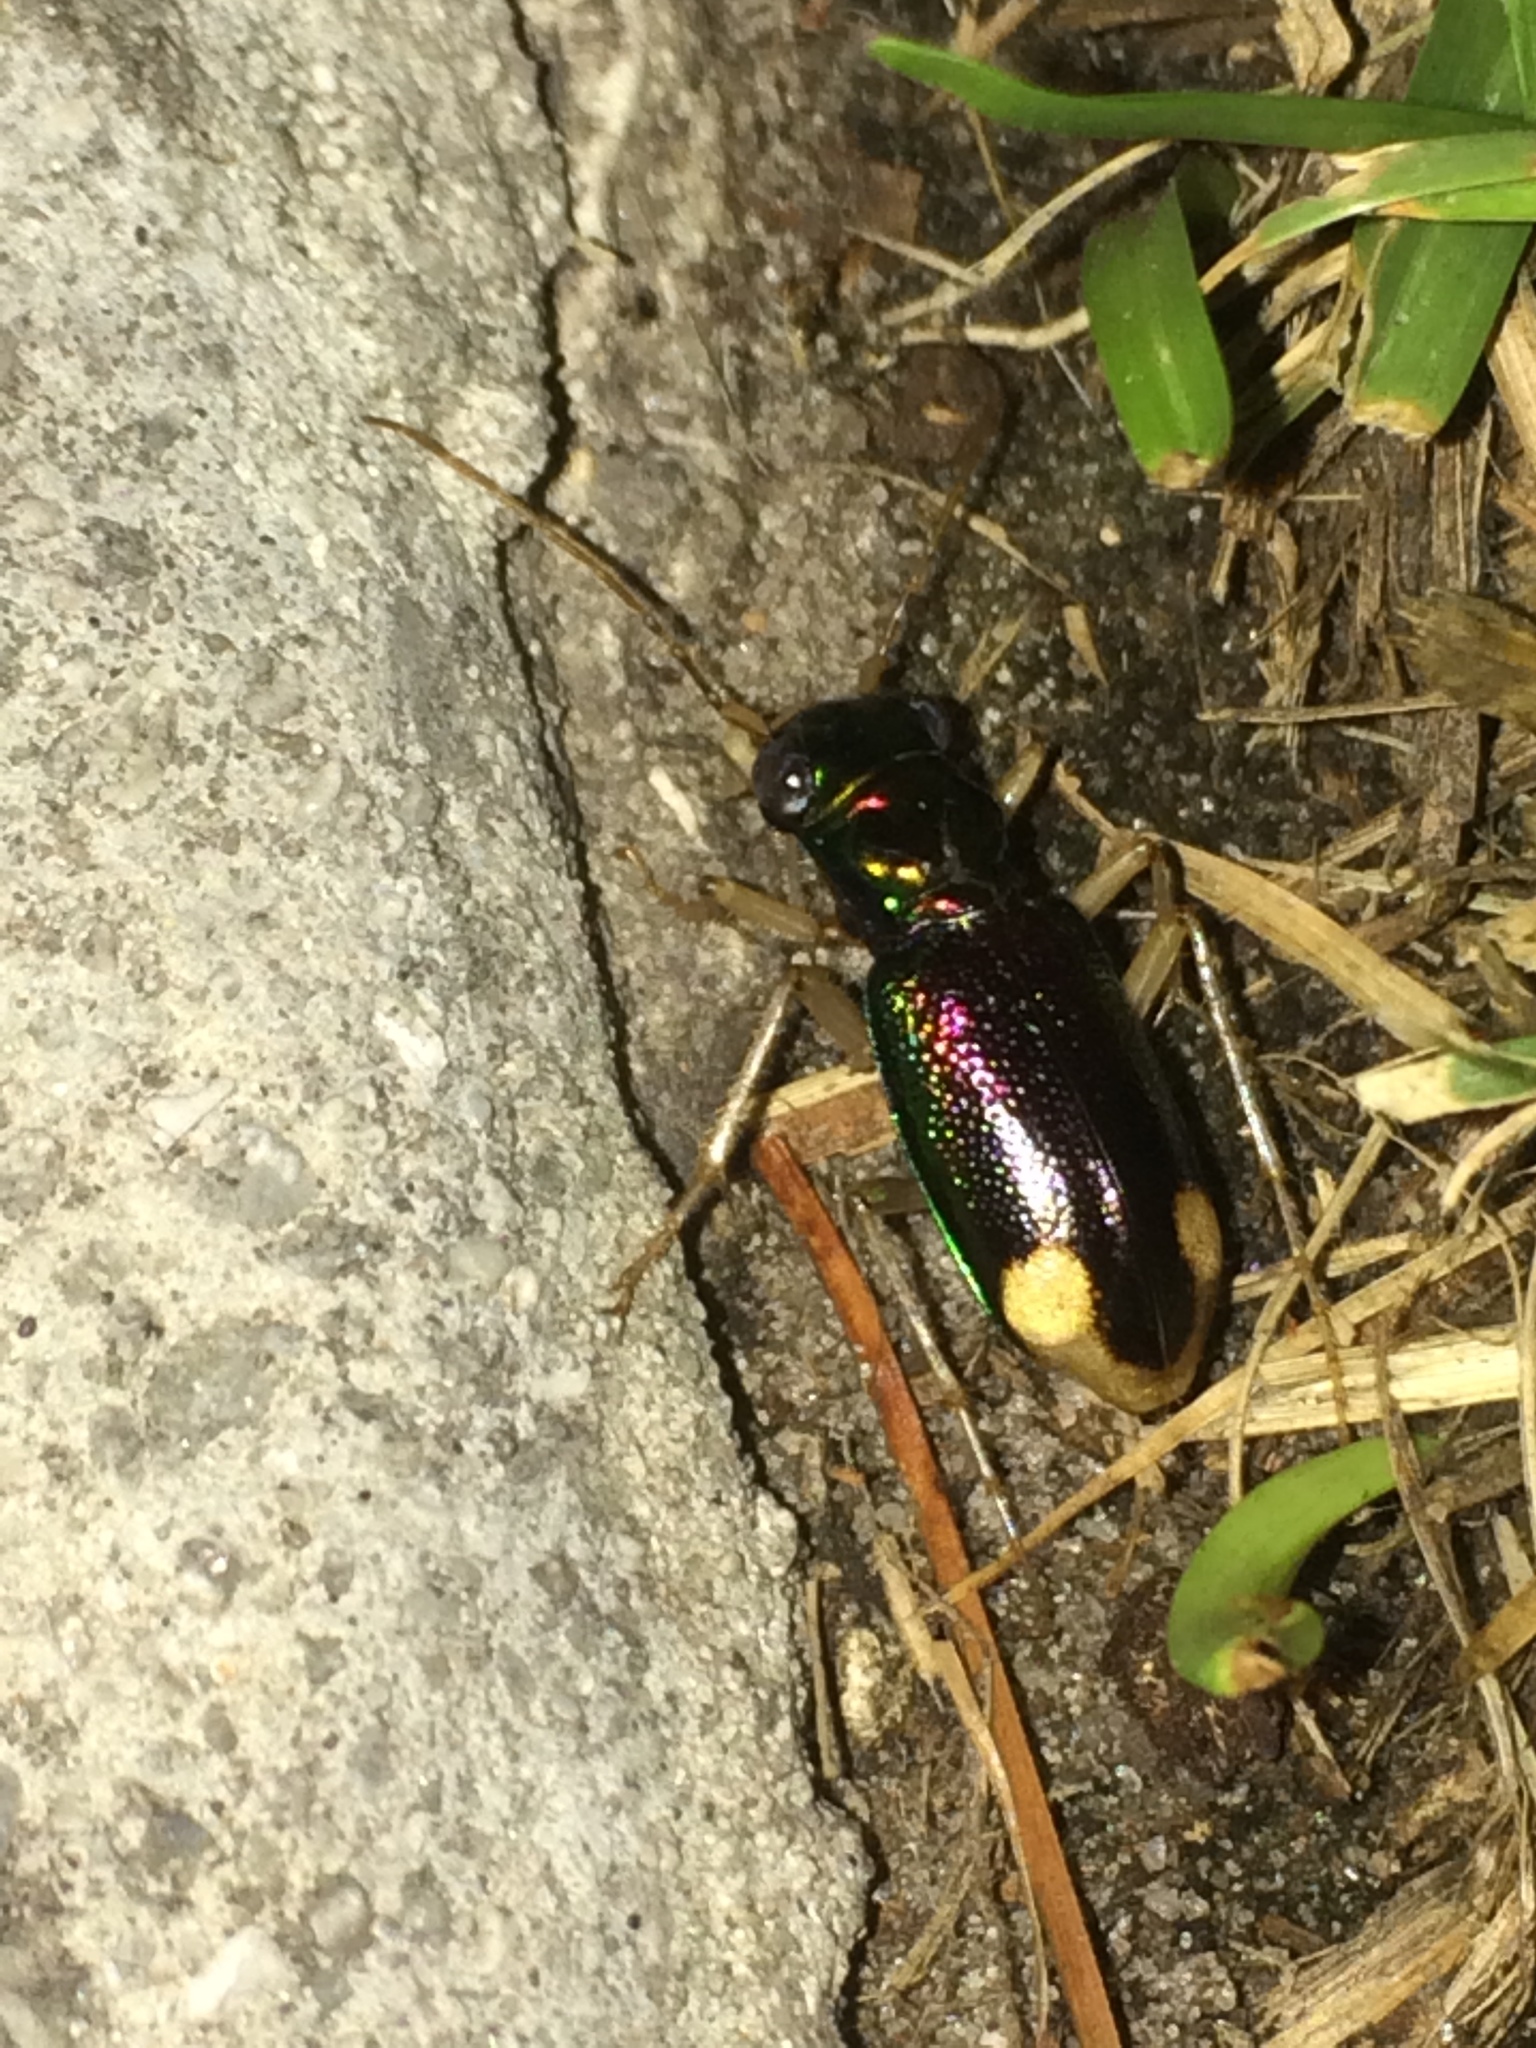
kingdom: Animalia
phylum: Arthropoda
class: Insecta
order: Coleoptera
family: Carabidae
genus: Tetracha
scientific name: Tetracha carolina
